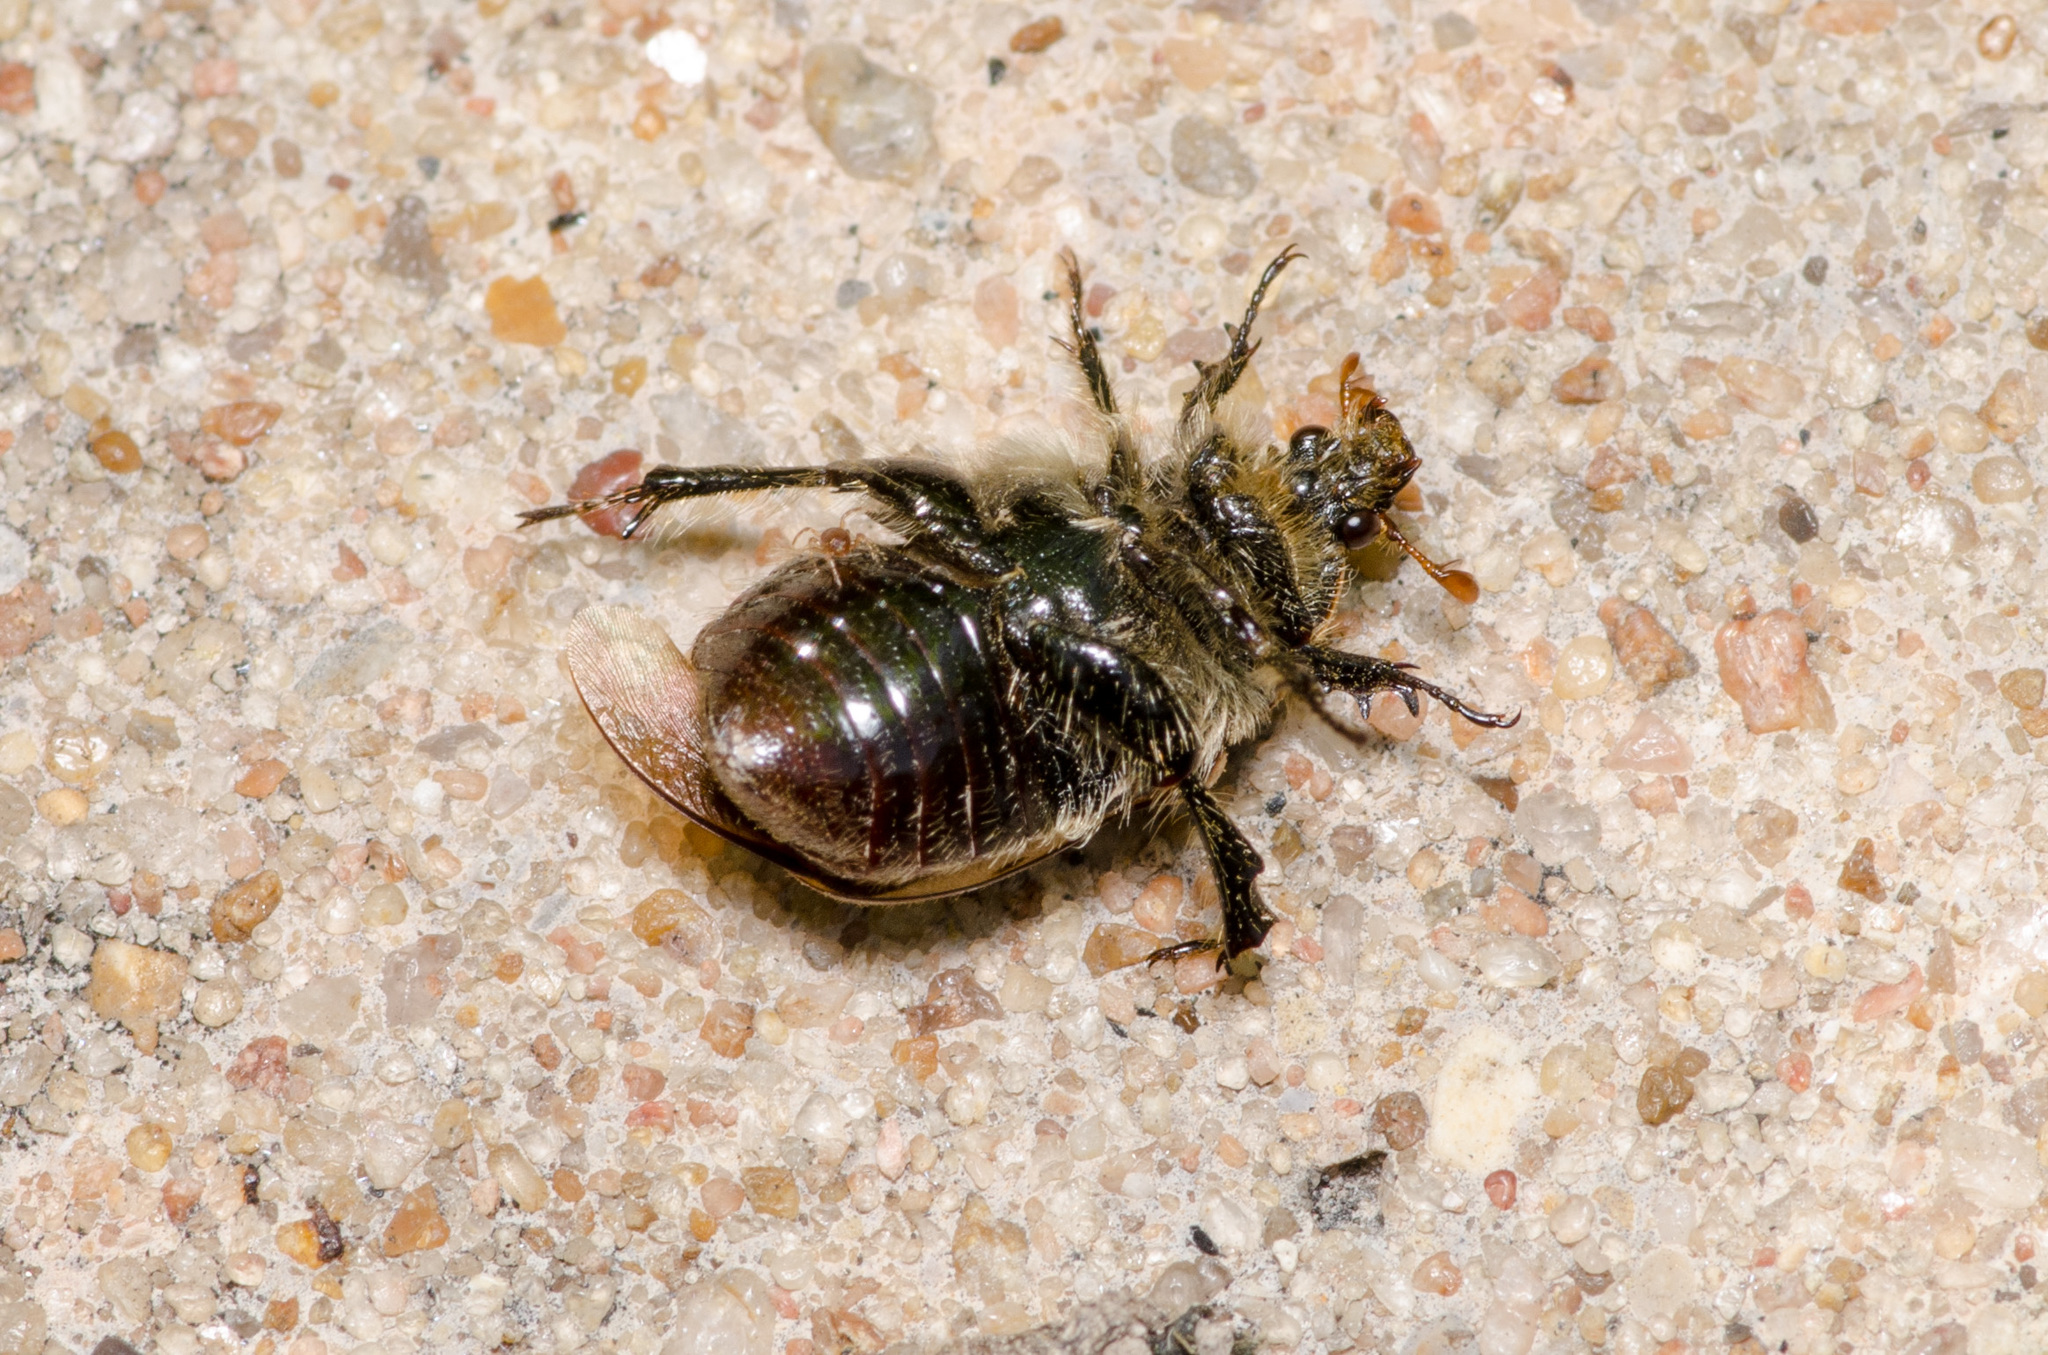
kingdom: Animalia
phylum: Arthropoda
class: Insecta
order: Coleoptera
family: Scarabaeidae
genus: Euphoria
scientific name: Euphoria kernii
